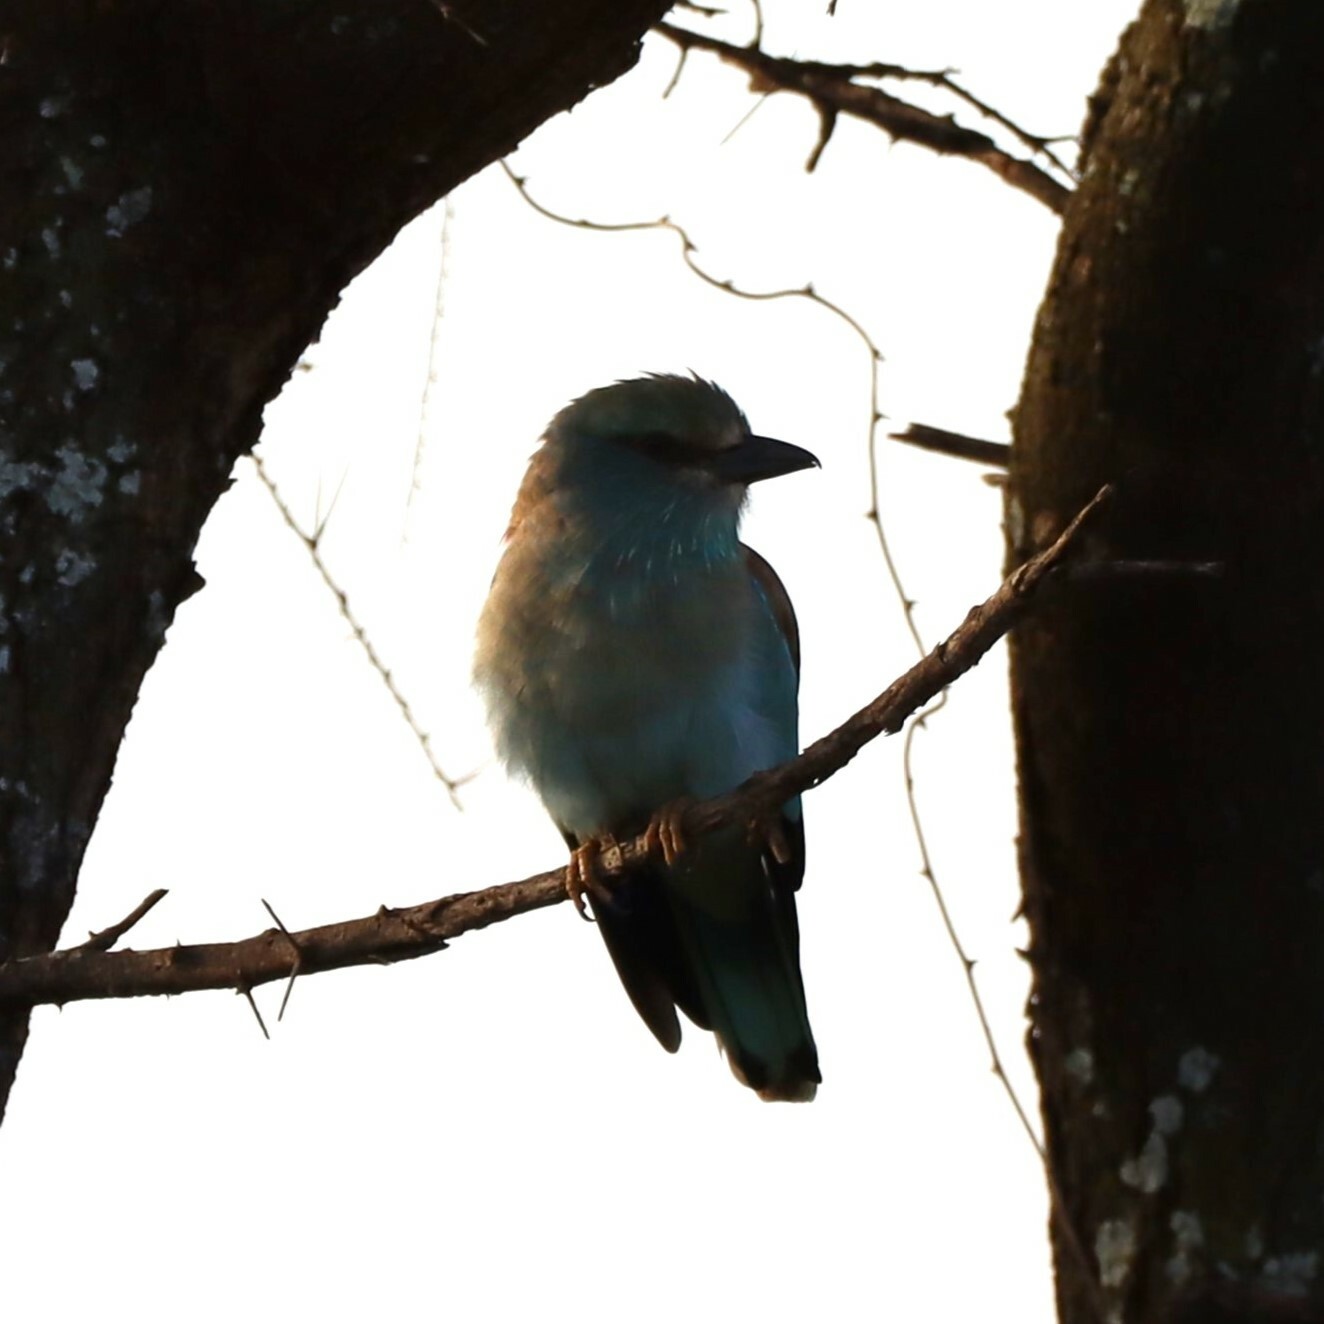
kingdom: Animalia
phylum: Chordata
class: Aves
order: Coraciiformes
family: Coraciidae
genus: Coracias
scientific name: Coracias garrulus
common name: European roller
